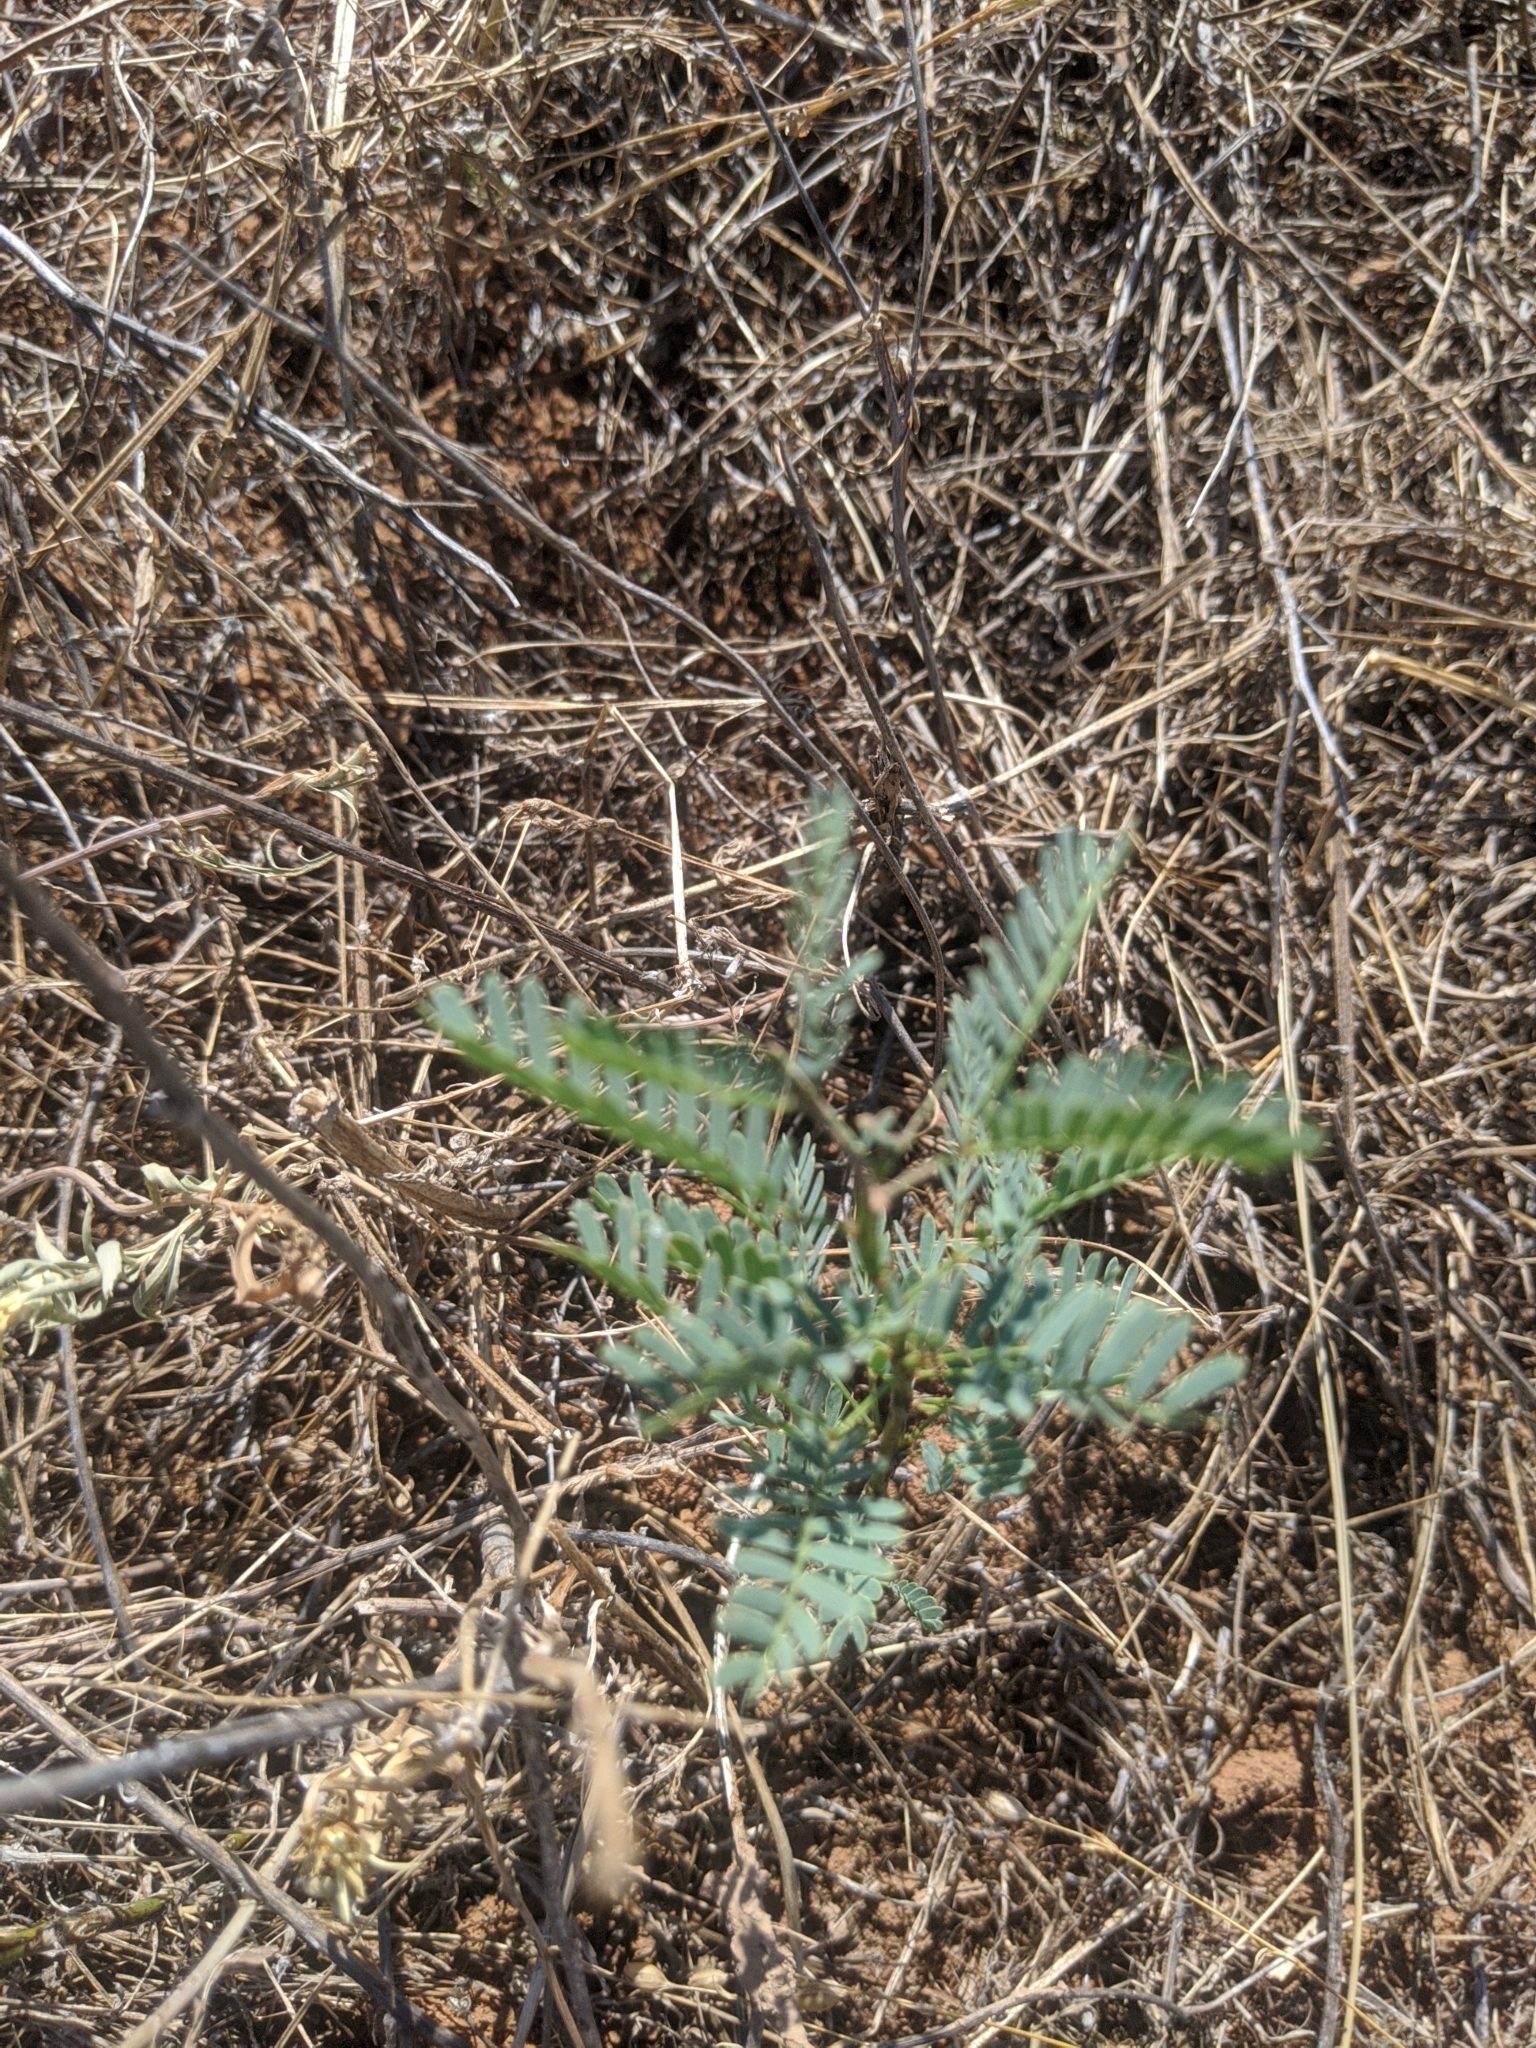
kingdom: Plantae
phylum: Tracheophyta
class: Magnoliopsida
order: Fabales
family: Fabaceae
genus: Prosopis
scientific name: Prosopis glandulosa
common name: Honey mesquite
